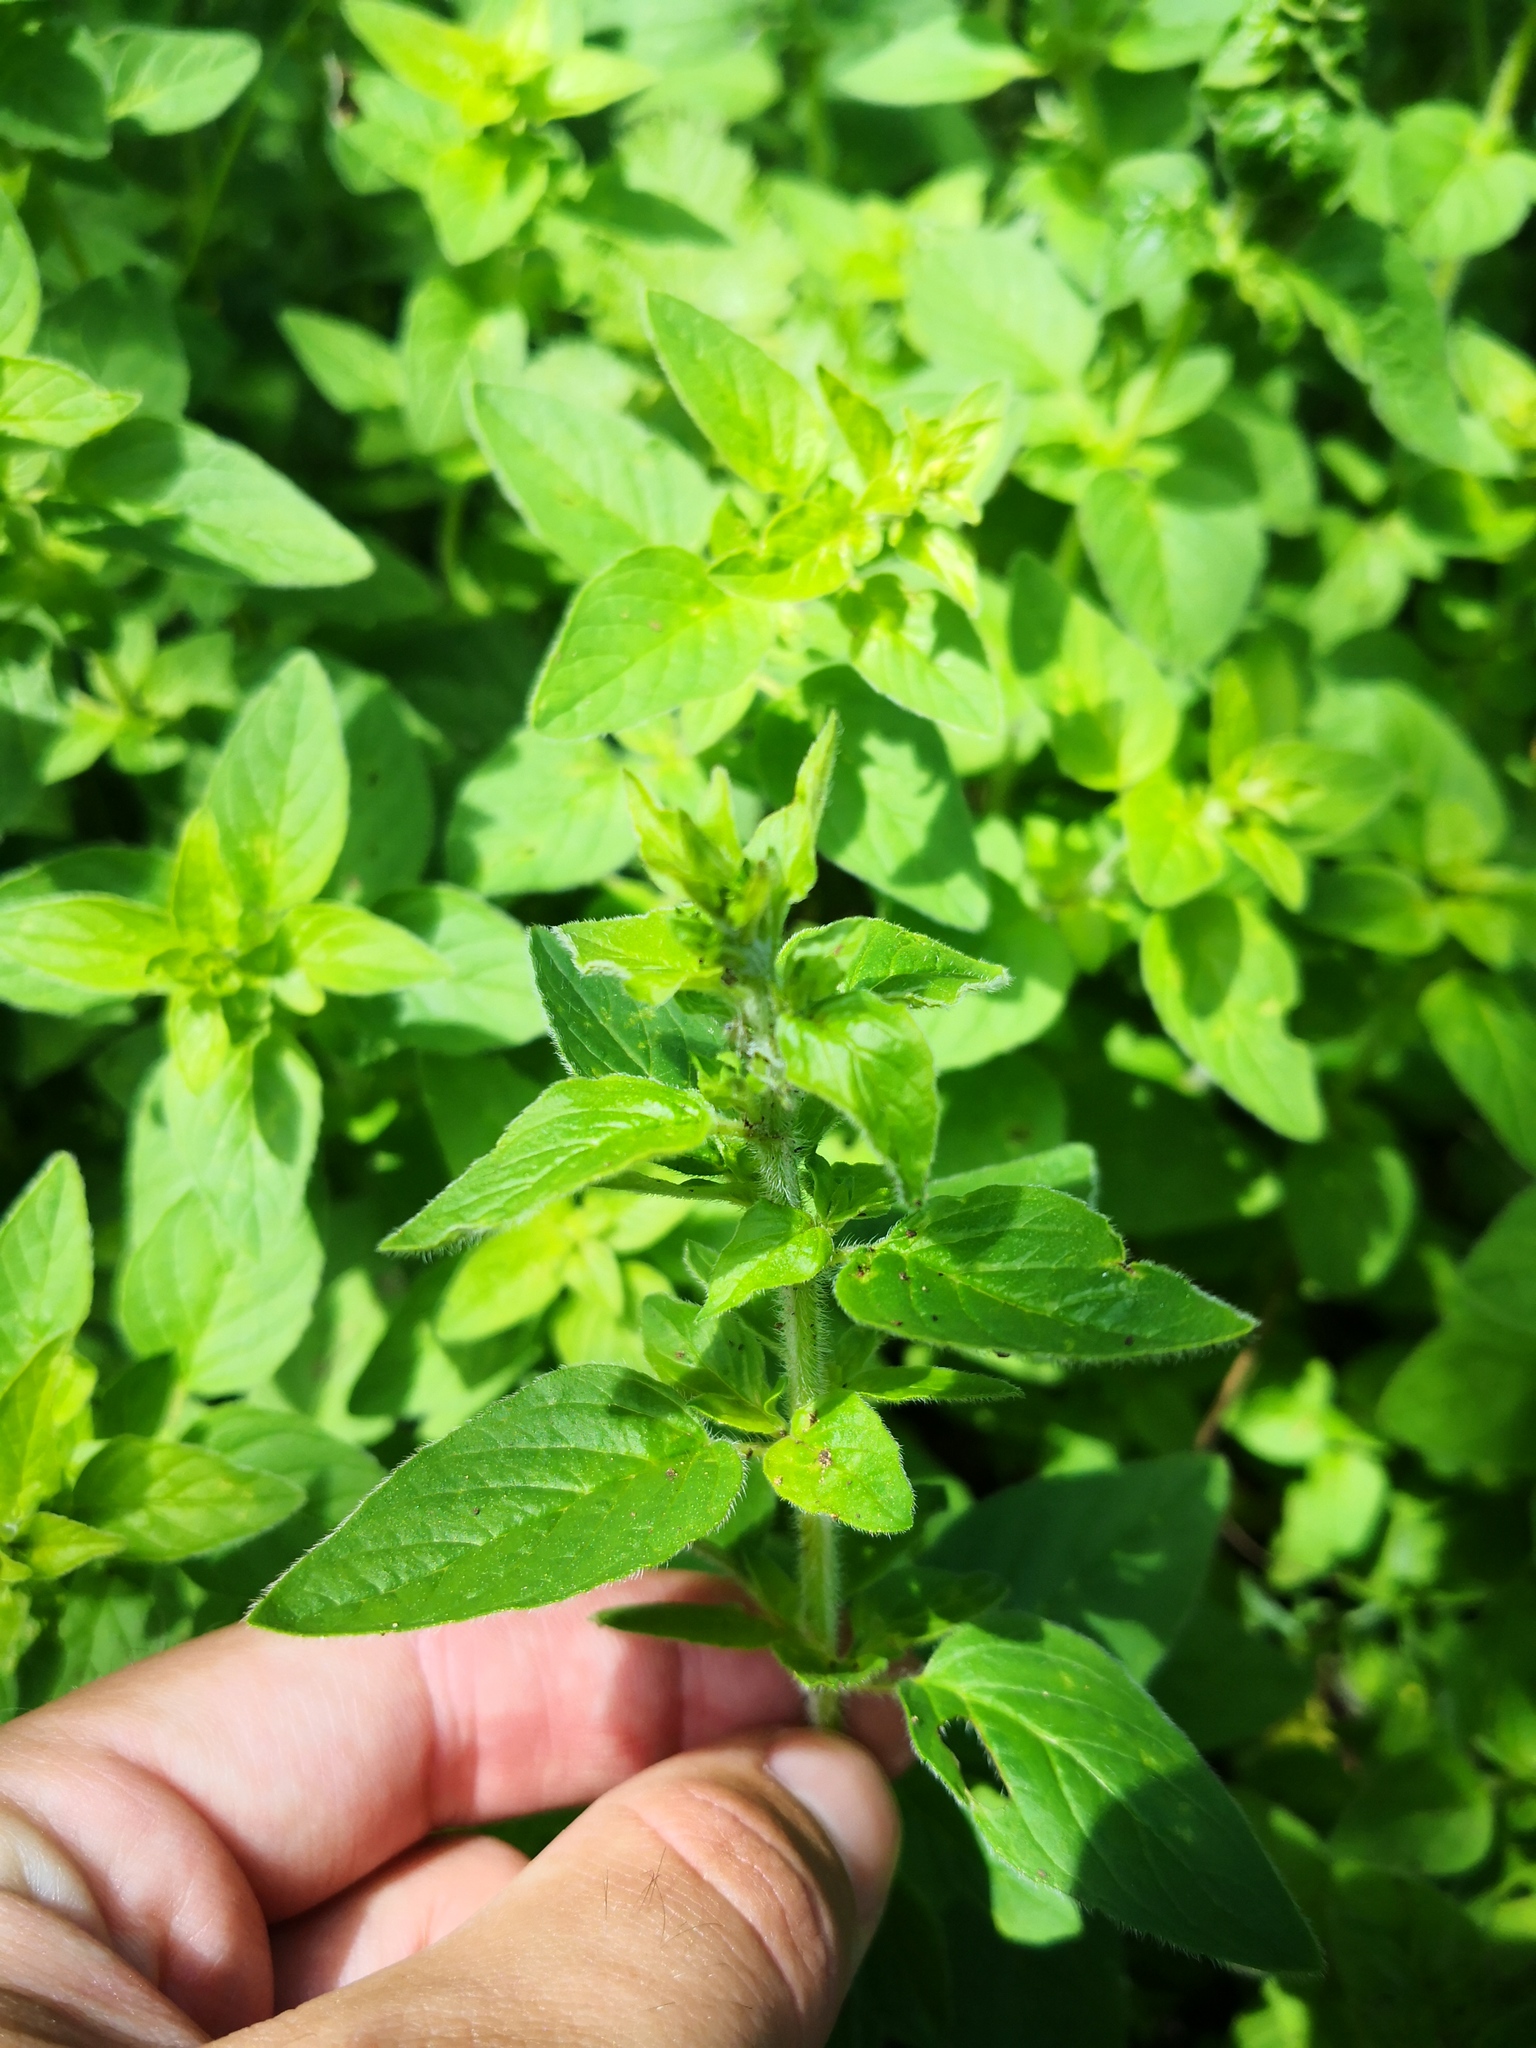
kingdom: Plantae
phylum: Tracheophyta
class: Magnoliopsida
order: Lamiales
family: Lamiaceae
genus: Origanum
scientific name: Origanum vulgare
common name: Wild marjoram
